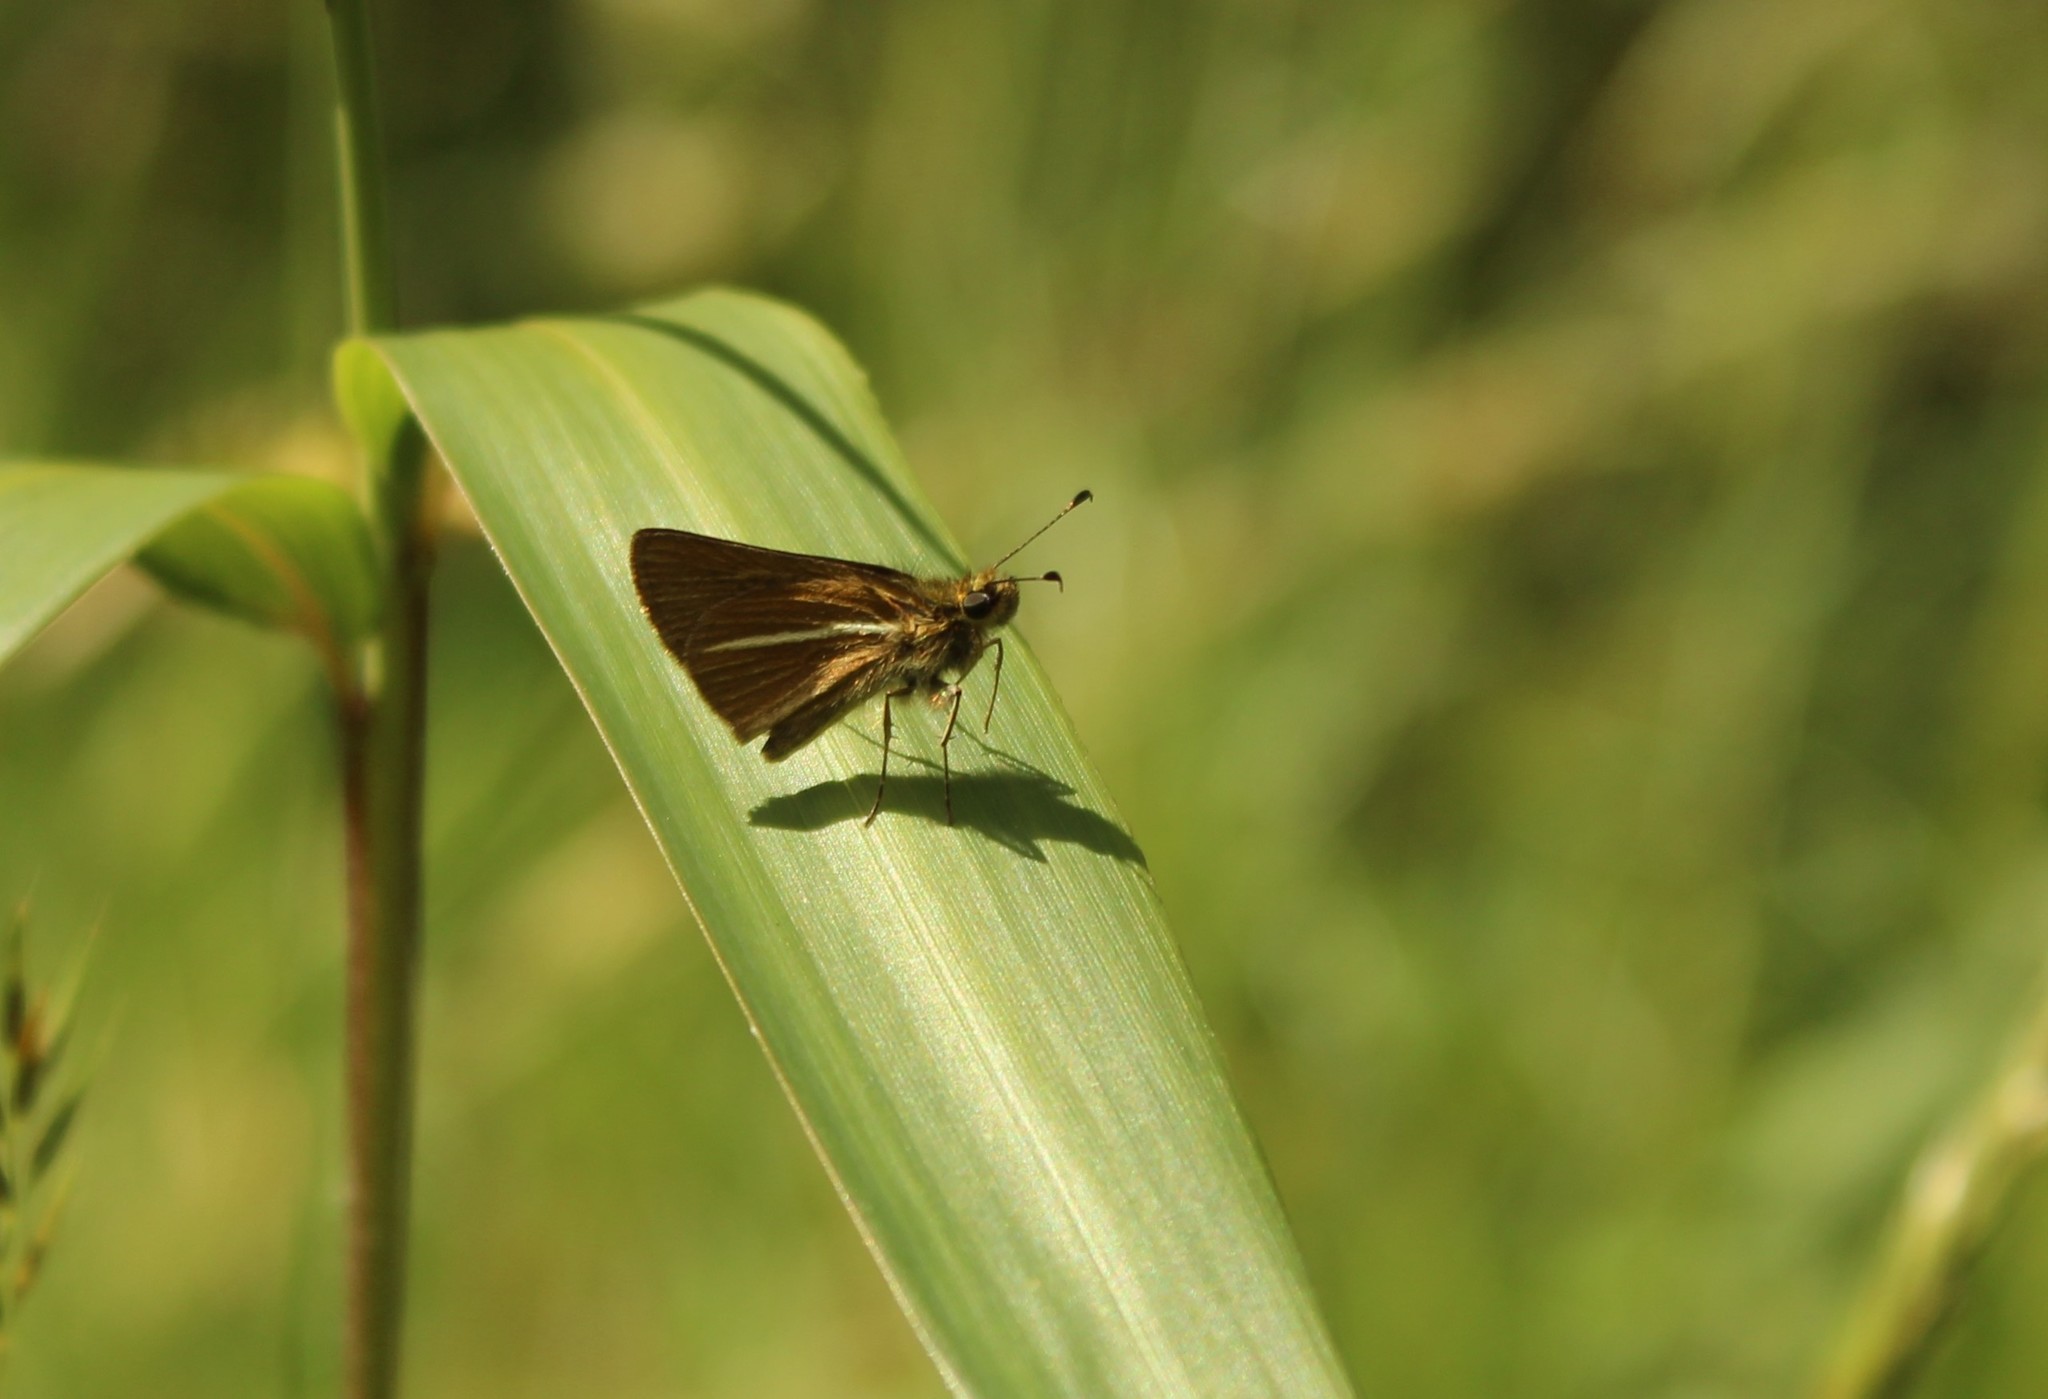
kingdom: Animalia
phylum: Arthropoda
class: Insecta
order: Lepidoptera
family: Hesperiidae
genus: Parphorus
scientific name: Parphorus paramus
